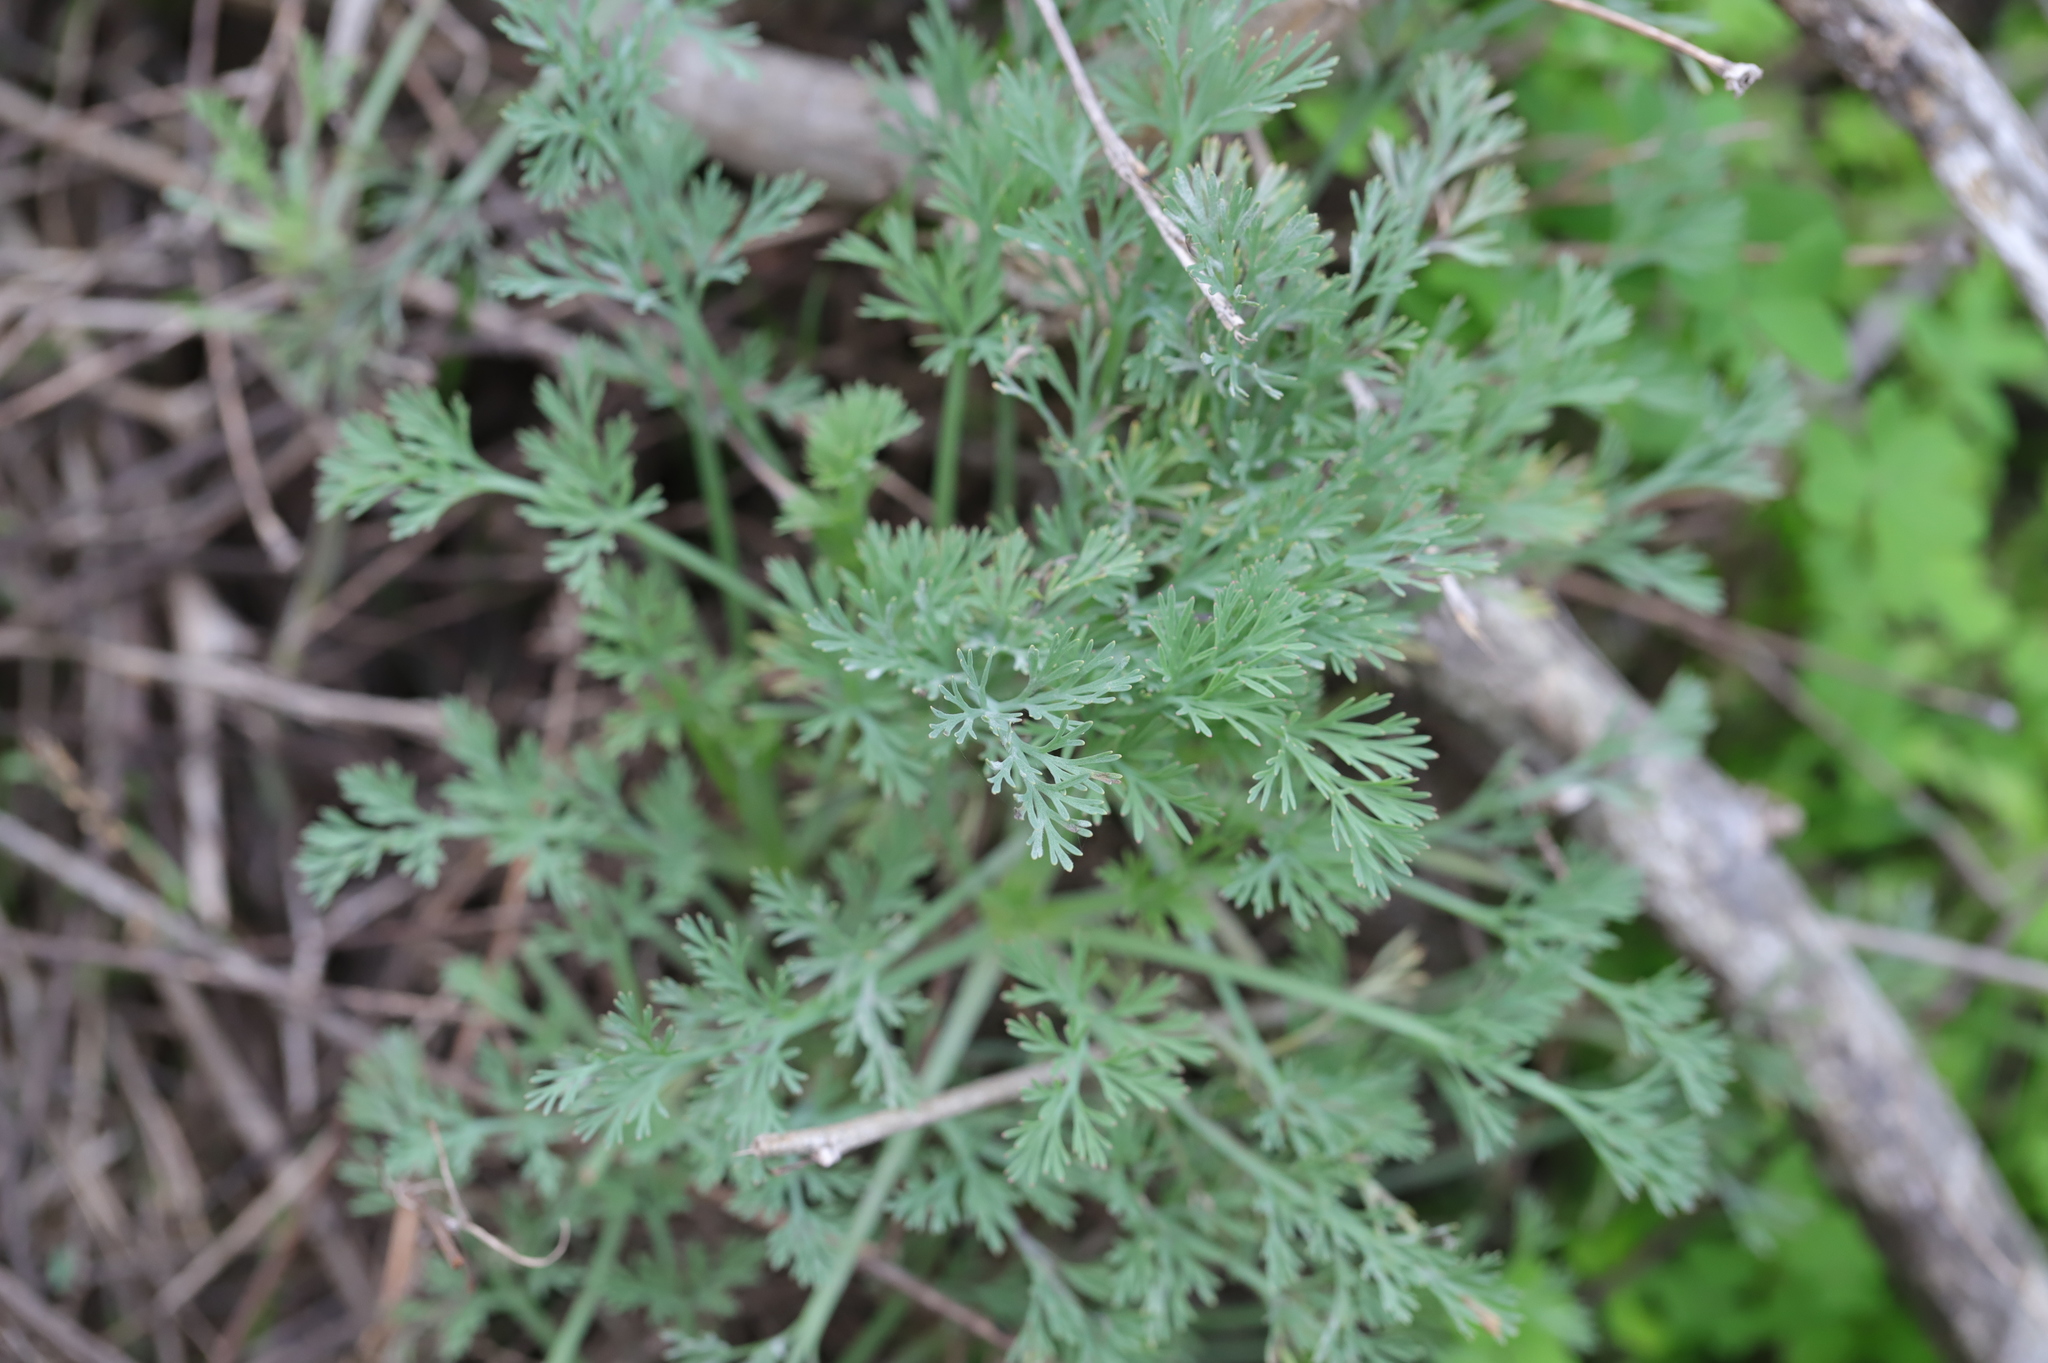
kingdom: Plantae
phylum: Tracheophyta
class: Magnoliopsida
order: Ranunculales
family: Papaveraceae
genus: Eschscholzia
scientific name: Eschscholzia californica
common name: California poppy
